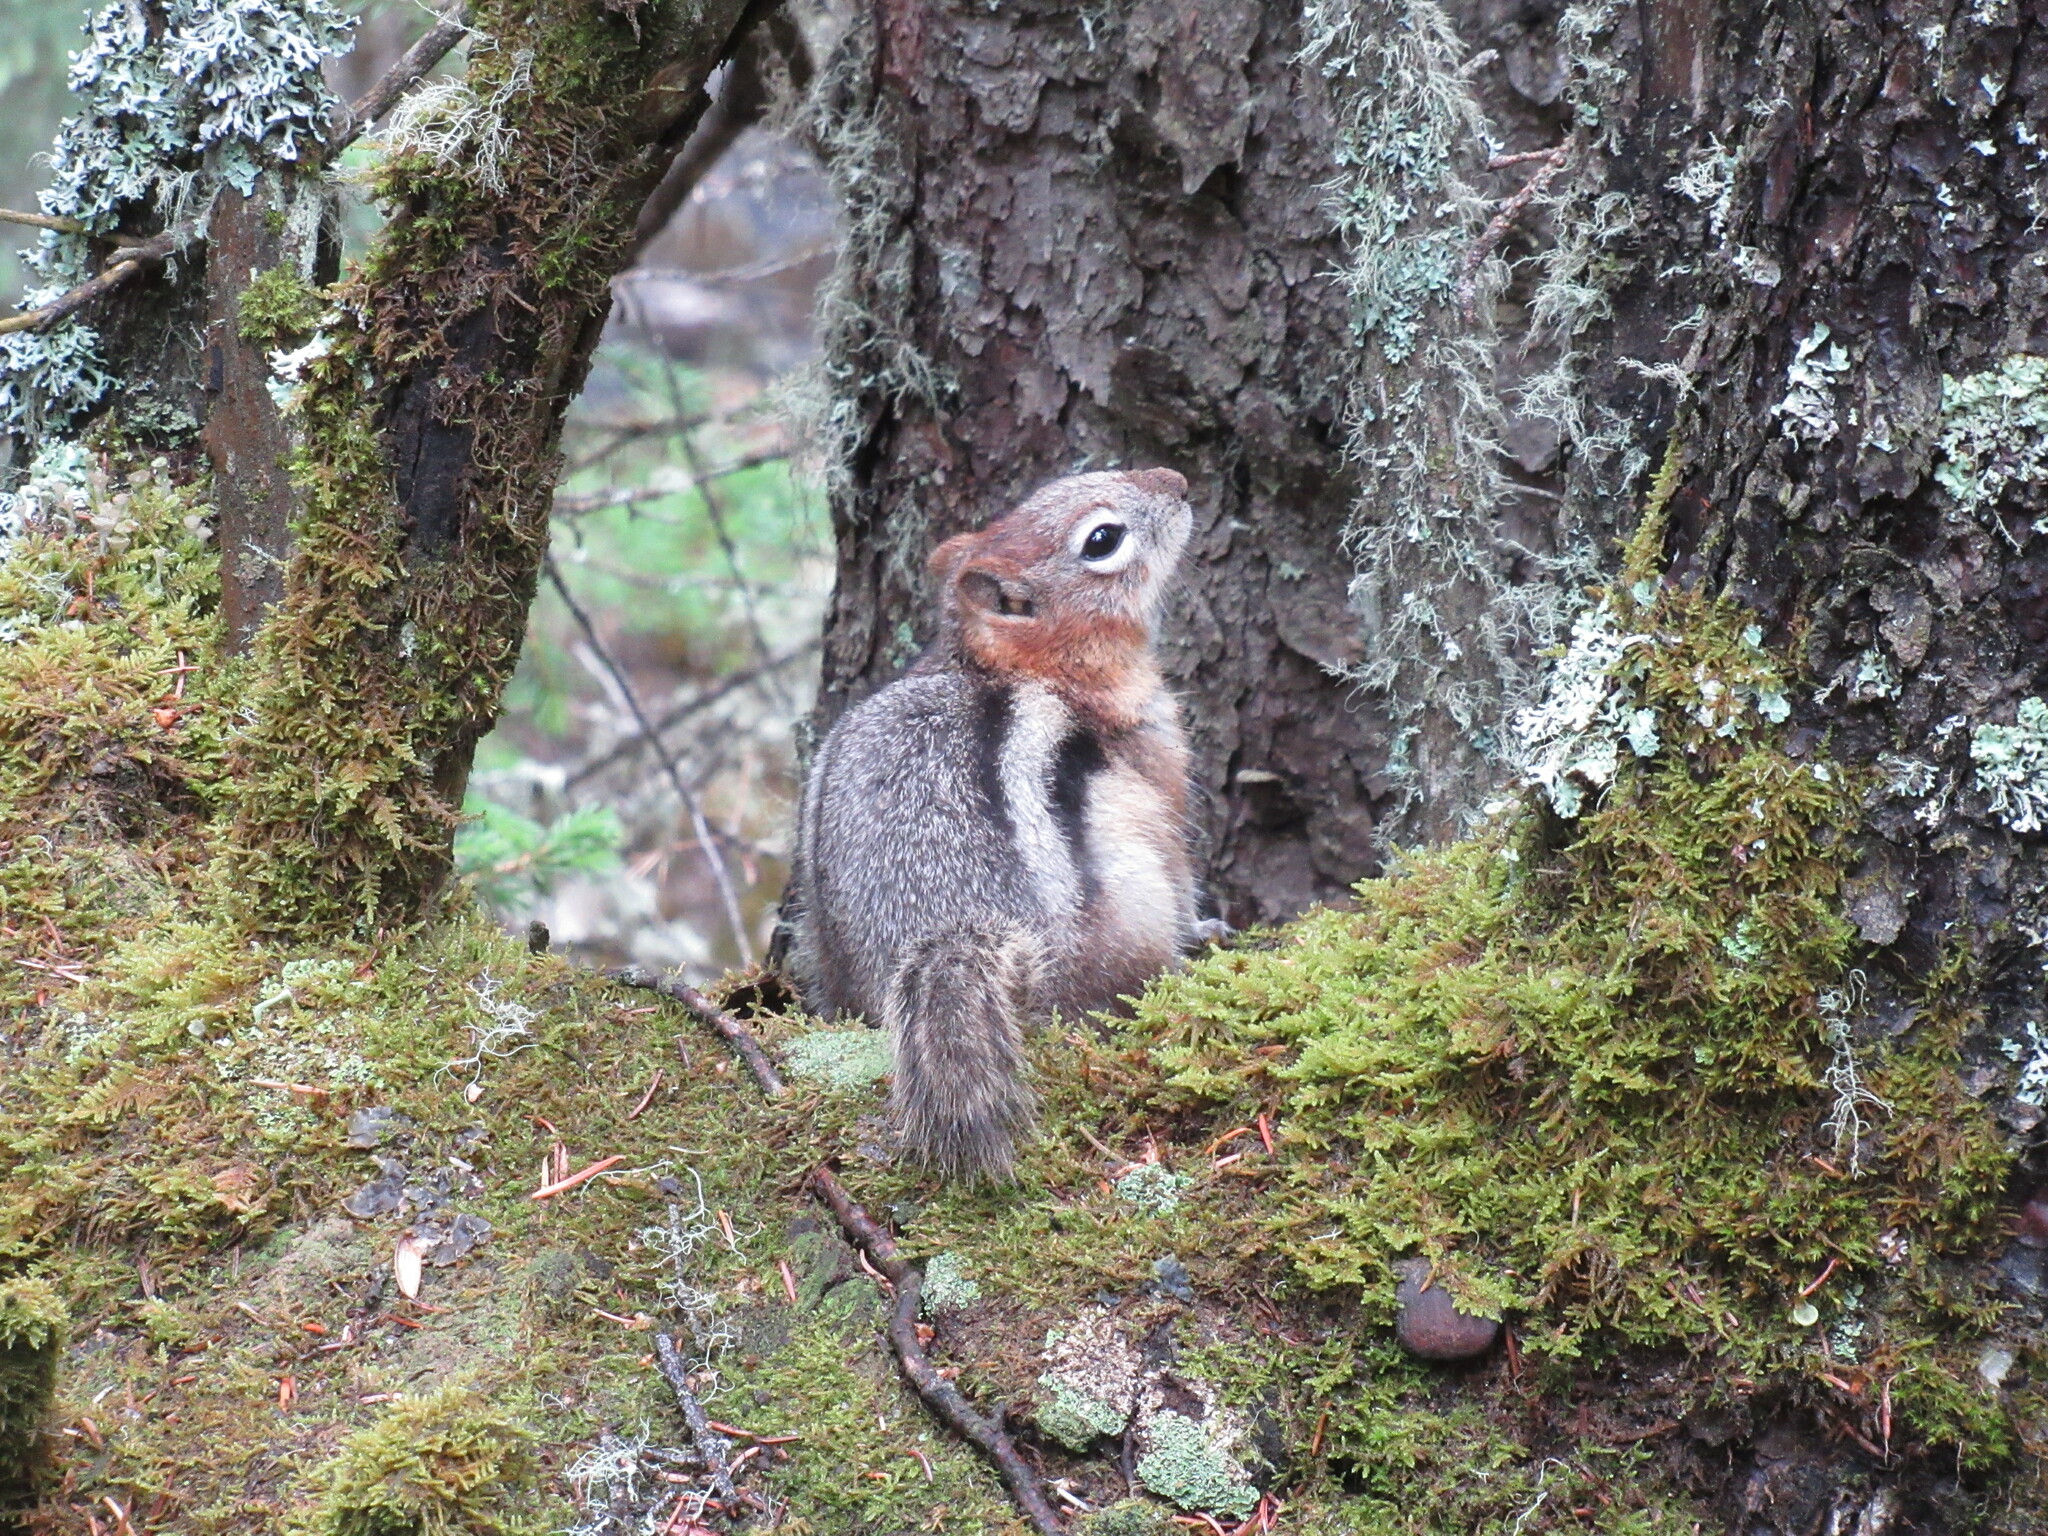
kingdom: Animalia
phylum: Chordata
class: Mammalia
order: Rodentia
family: Sciuridae
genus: Callospermophilus
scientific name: Callospermophilus lateralis
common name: Golden-mantled ground squirrel
